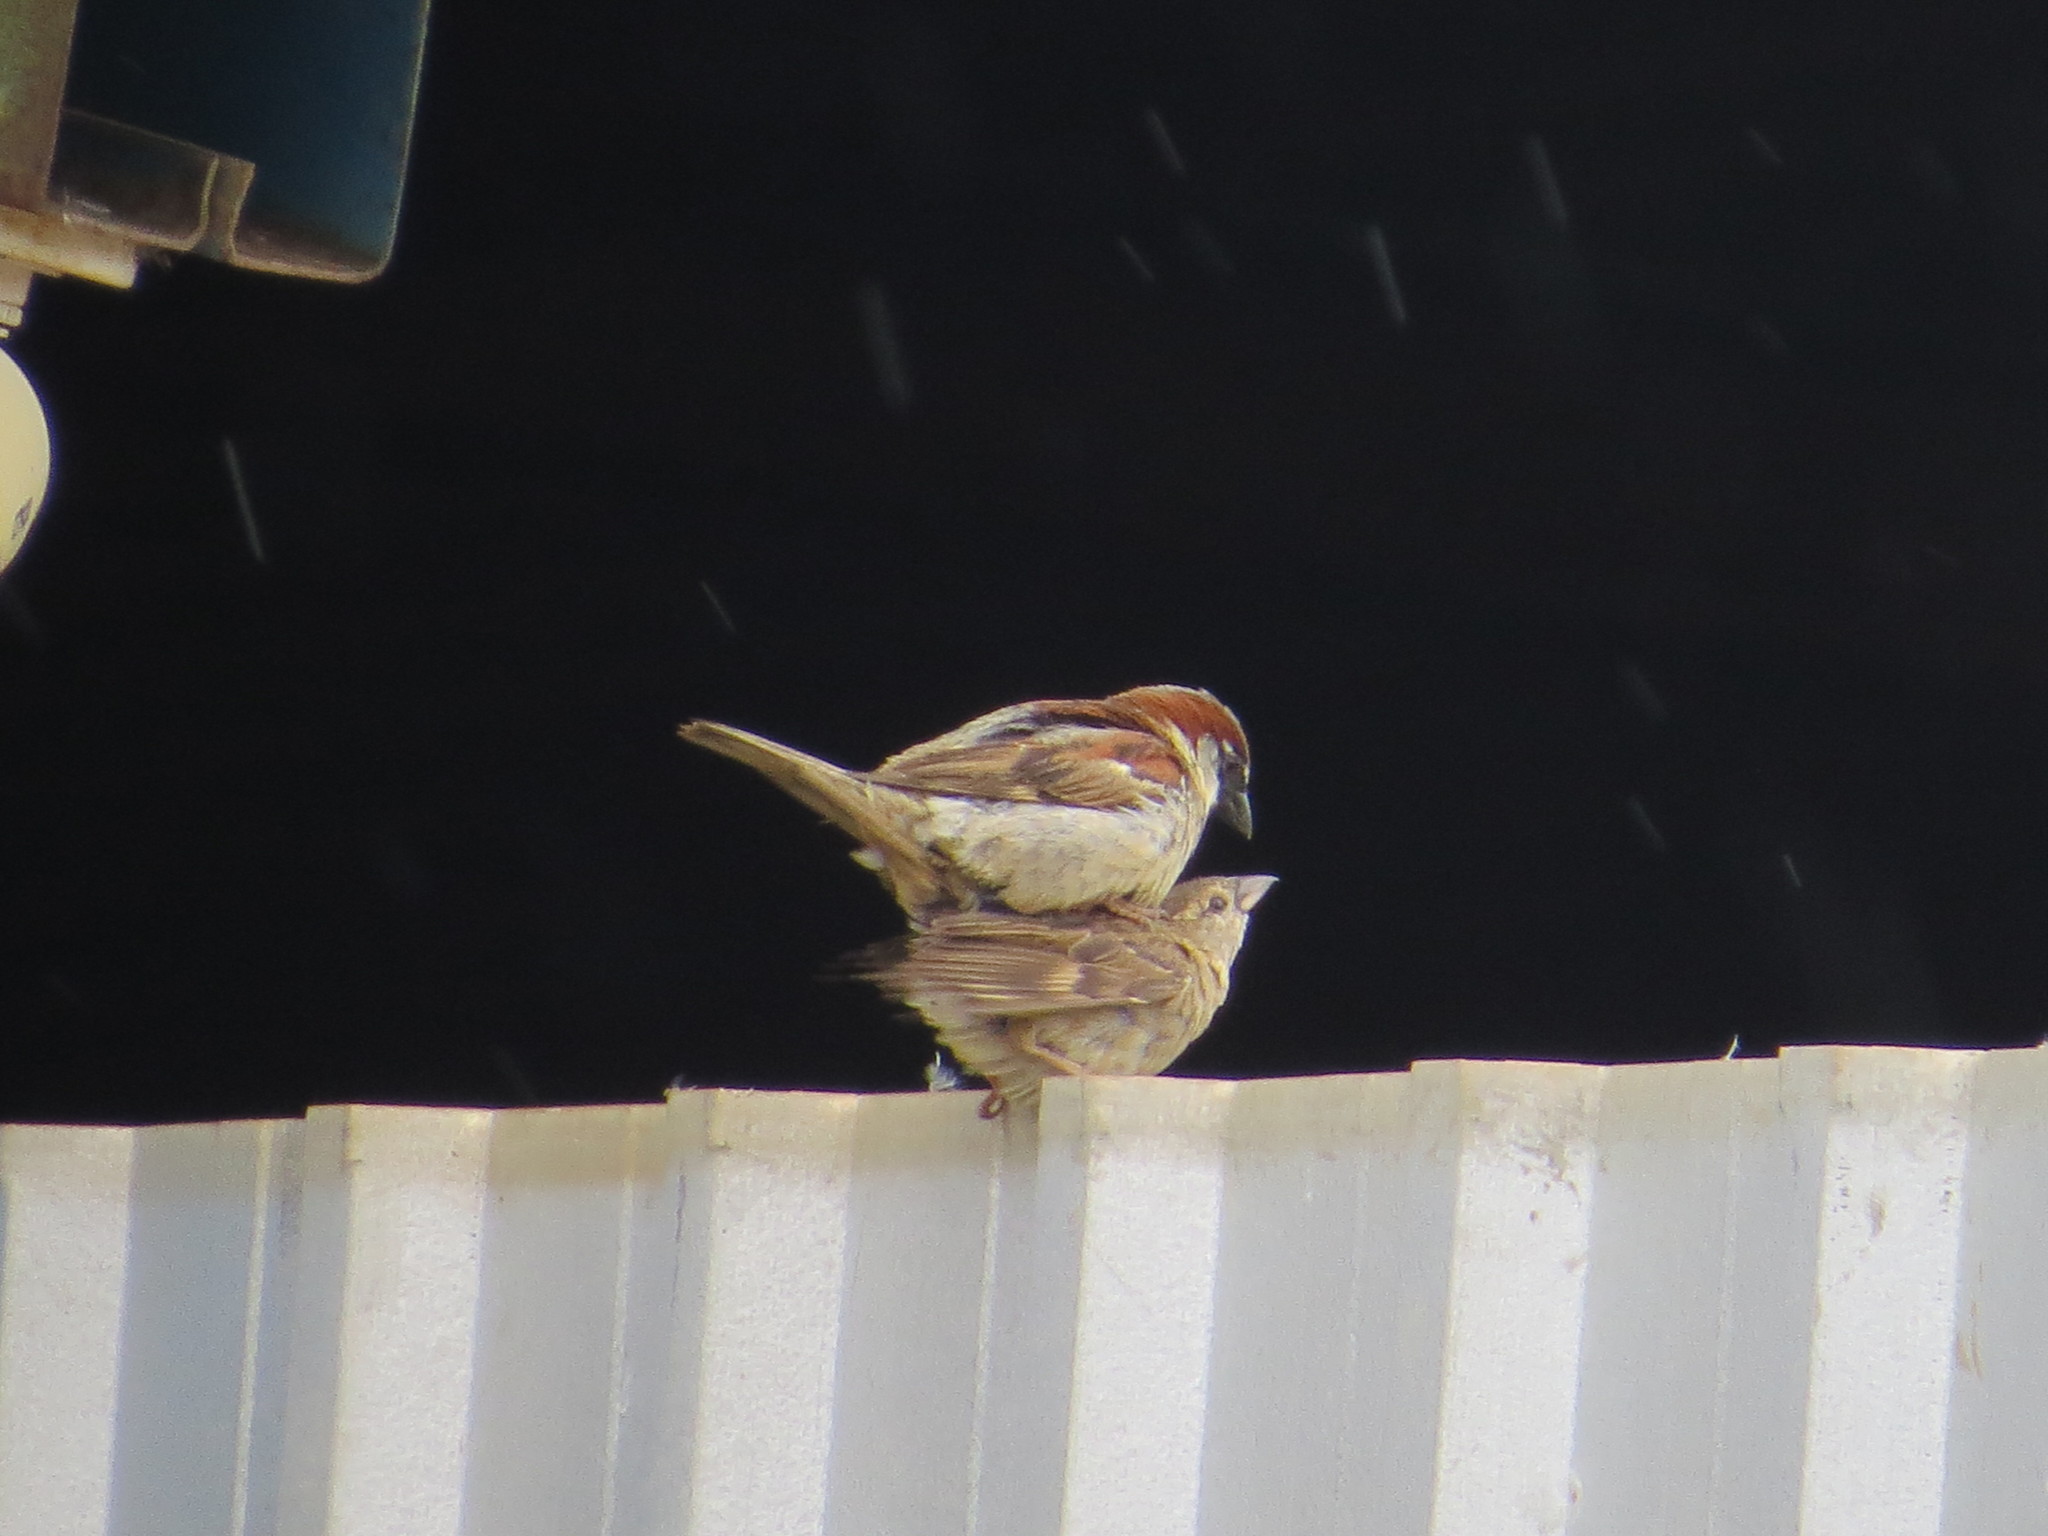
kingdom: Animalia
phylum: Chordata
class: Aves
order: Passeriformes
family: Passeridae
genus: Passer
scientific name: Passer domesticus
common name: House sparrow
